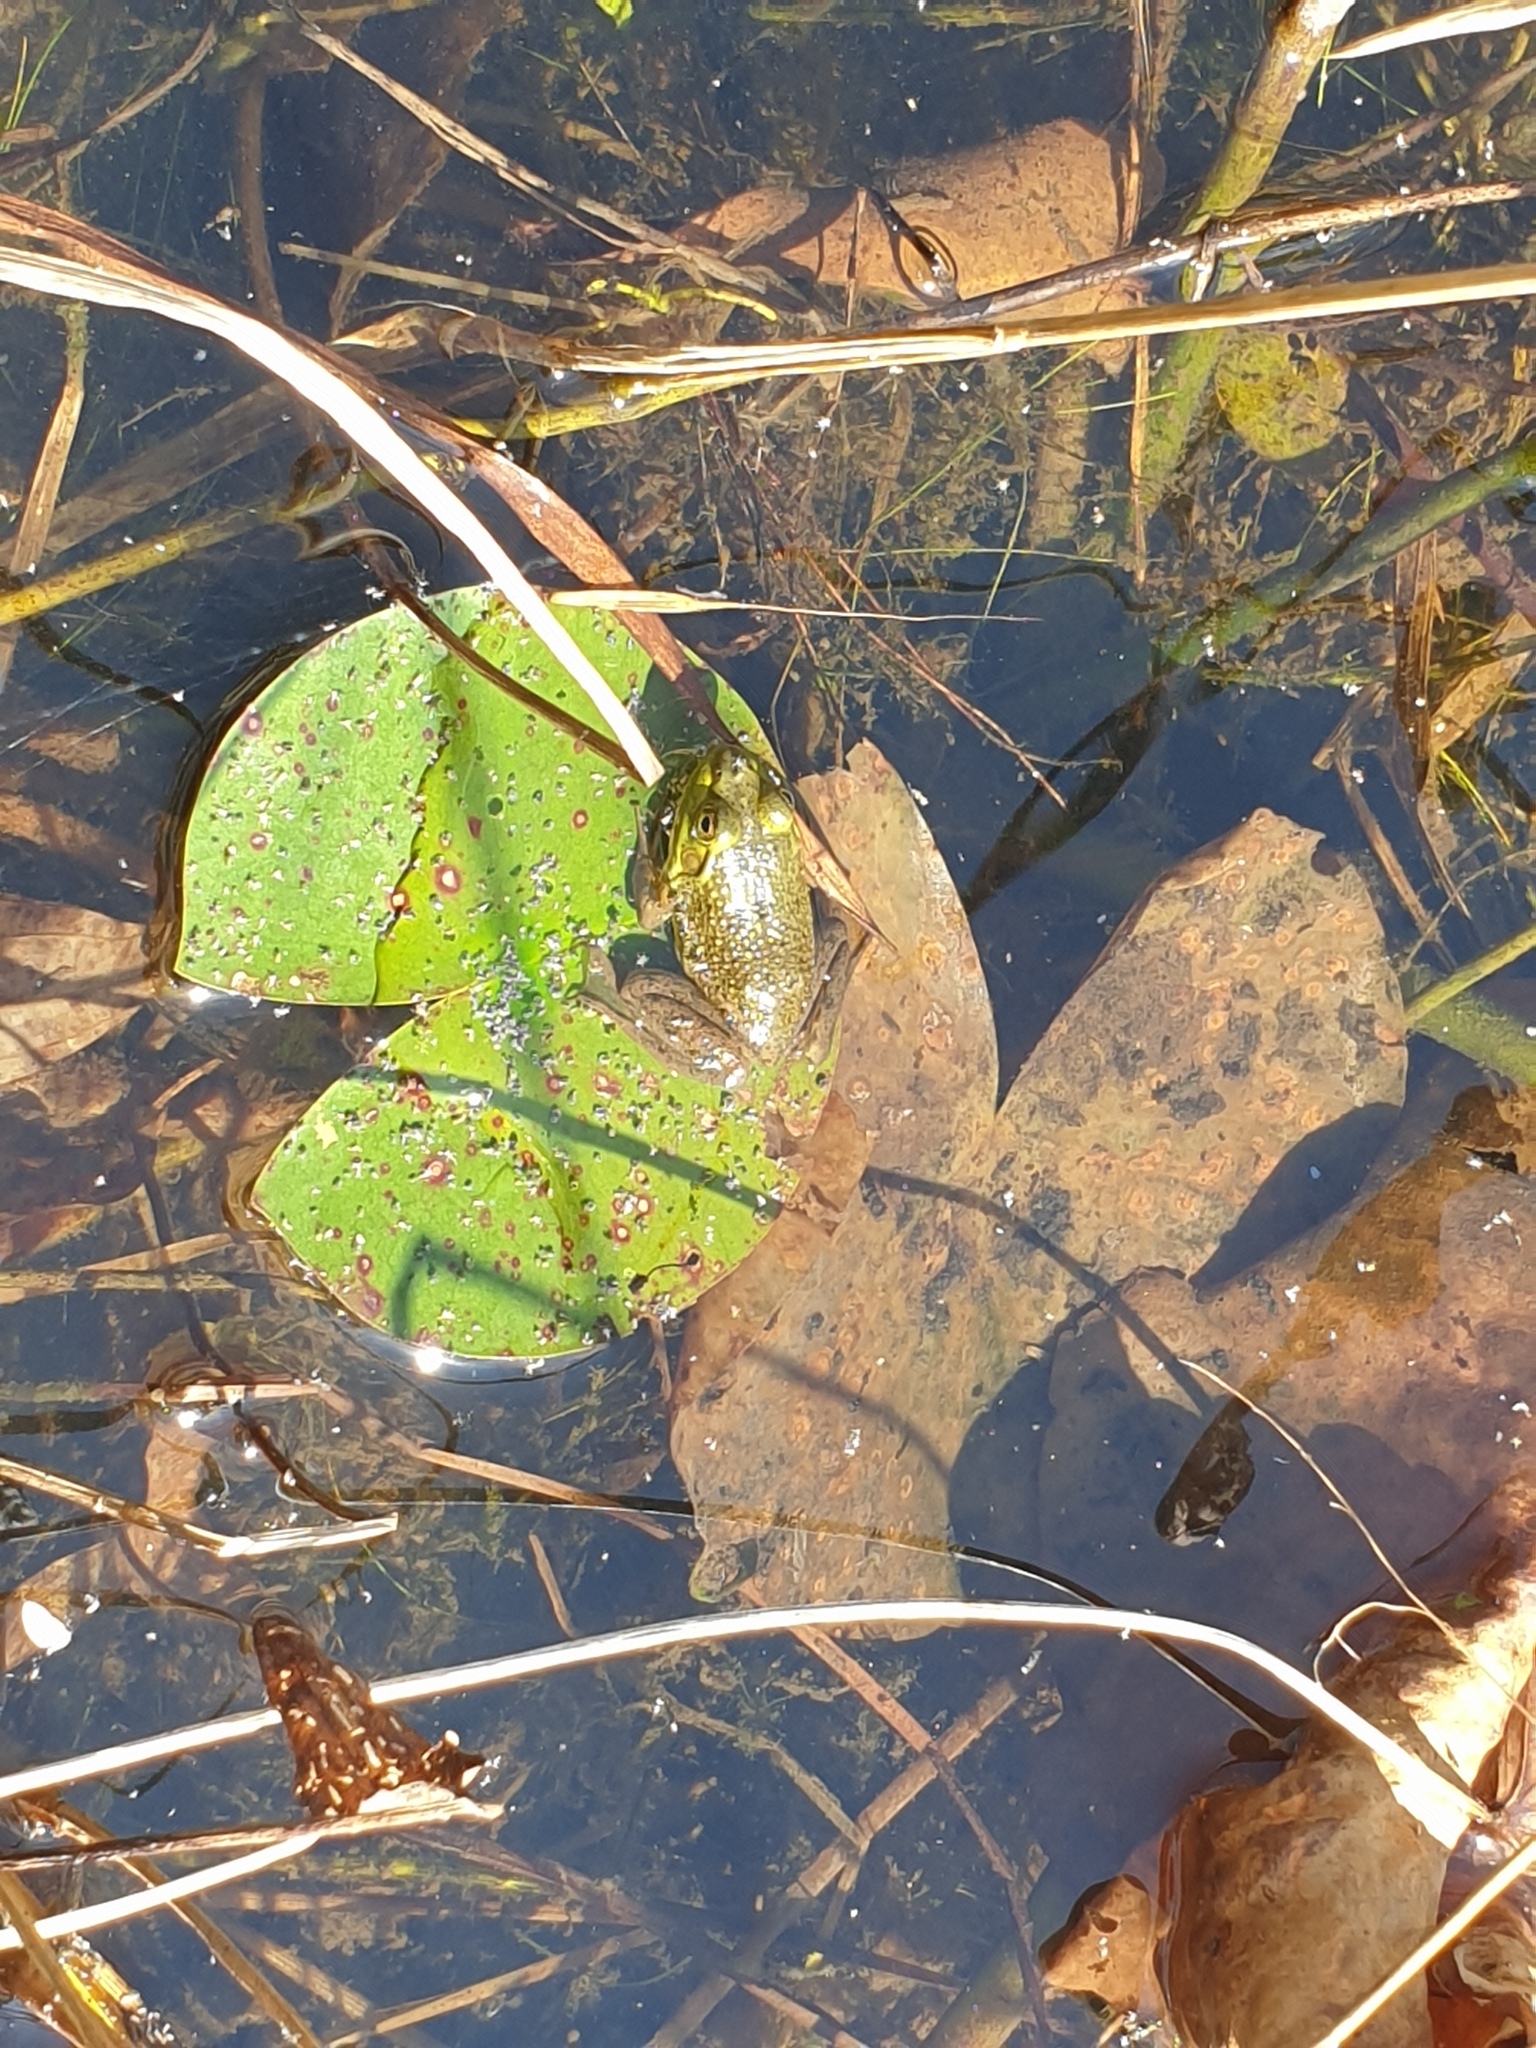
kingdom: Animalia
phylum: Chordata
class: Amphibia
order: Anura
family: Ranidae
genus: Lithobates
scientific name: Lithobates catesbeianus
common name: American bullfrog
